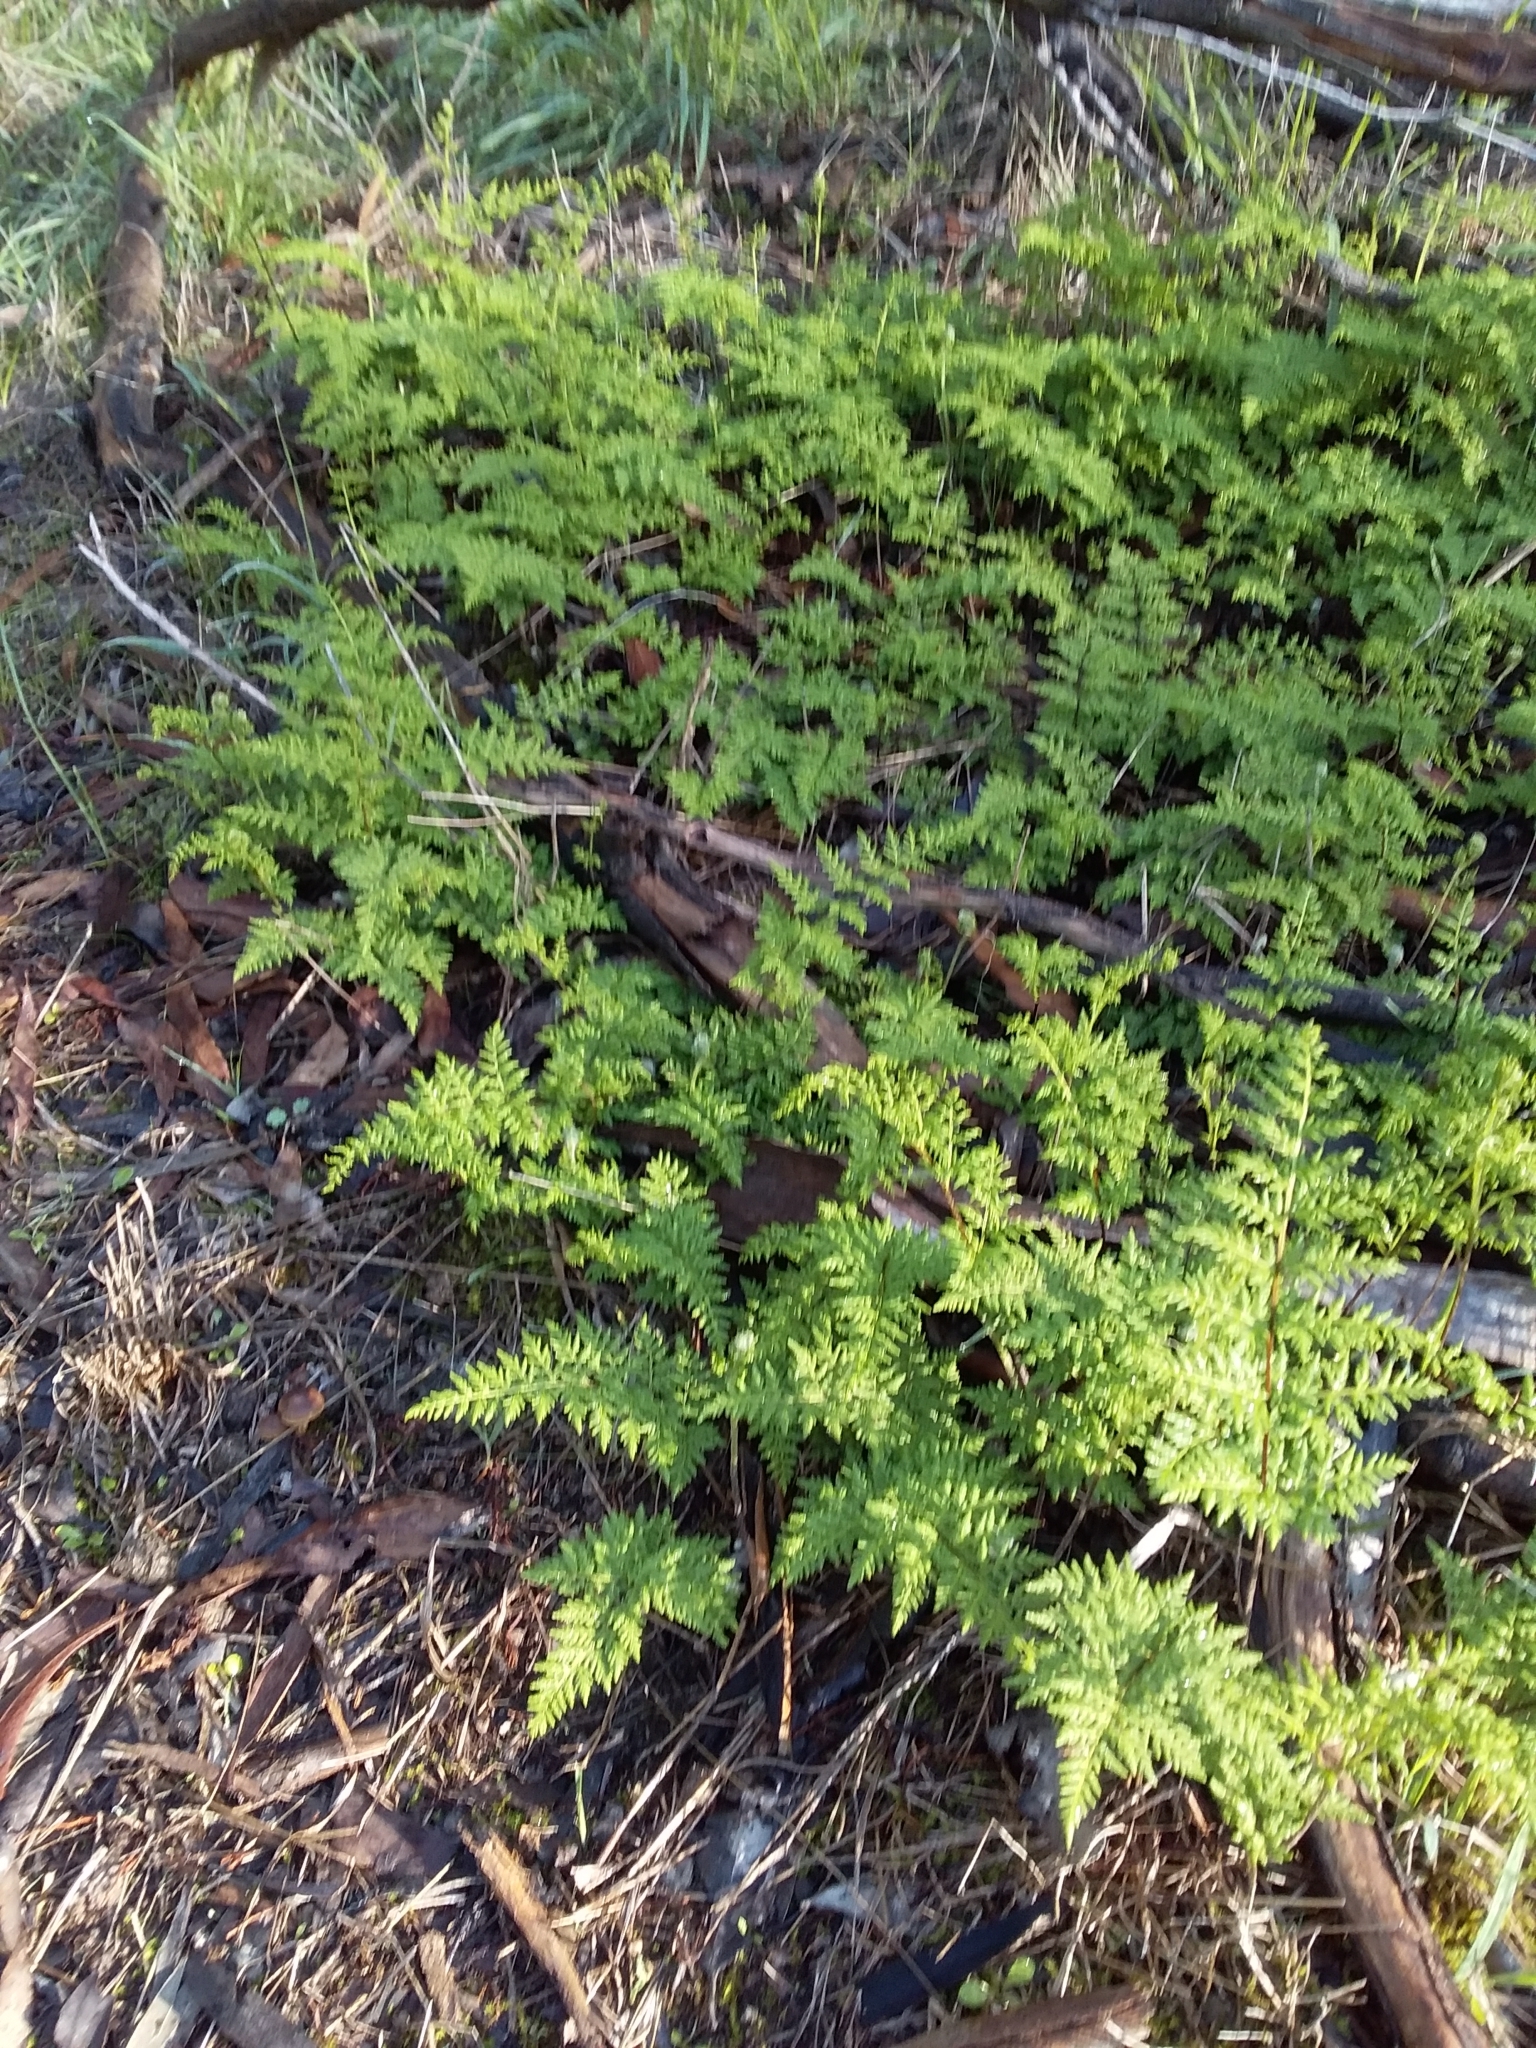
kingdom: Plantae
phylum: Tracheophyta
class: Polypodiopsida
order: Polypodiales
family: Pteridaceae
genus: Cheilanthes
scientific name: Cheilanthes austrotenuifolia
